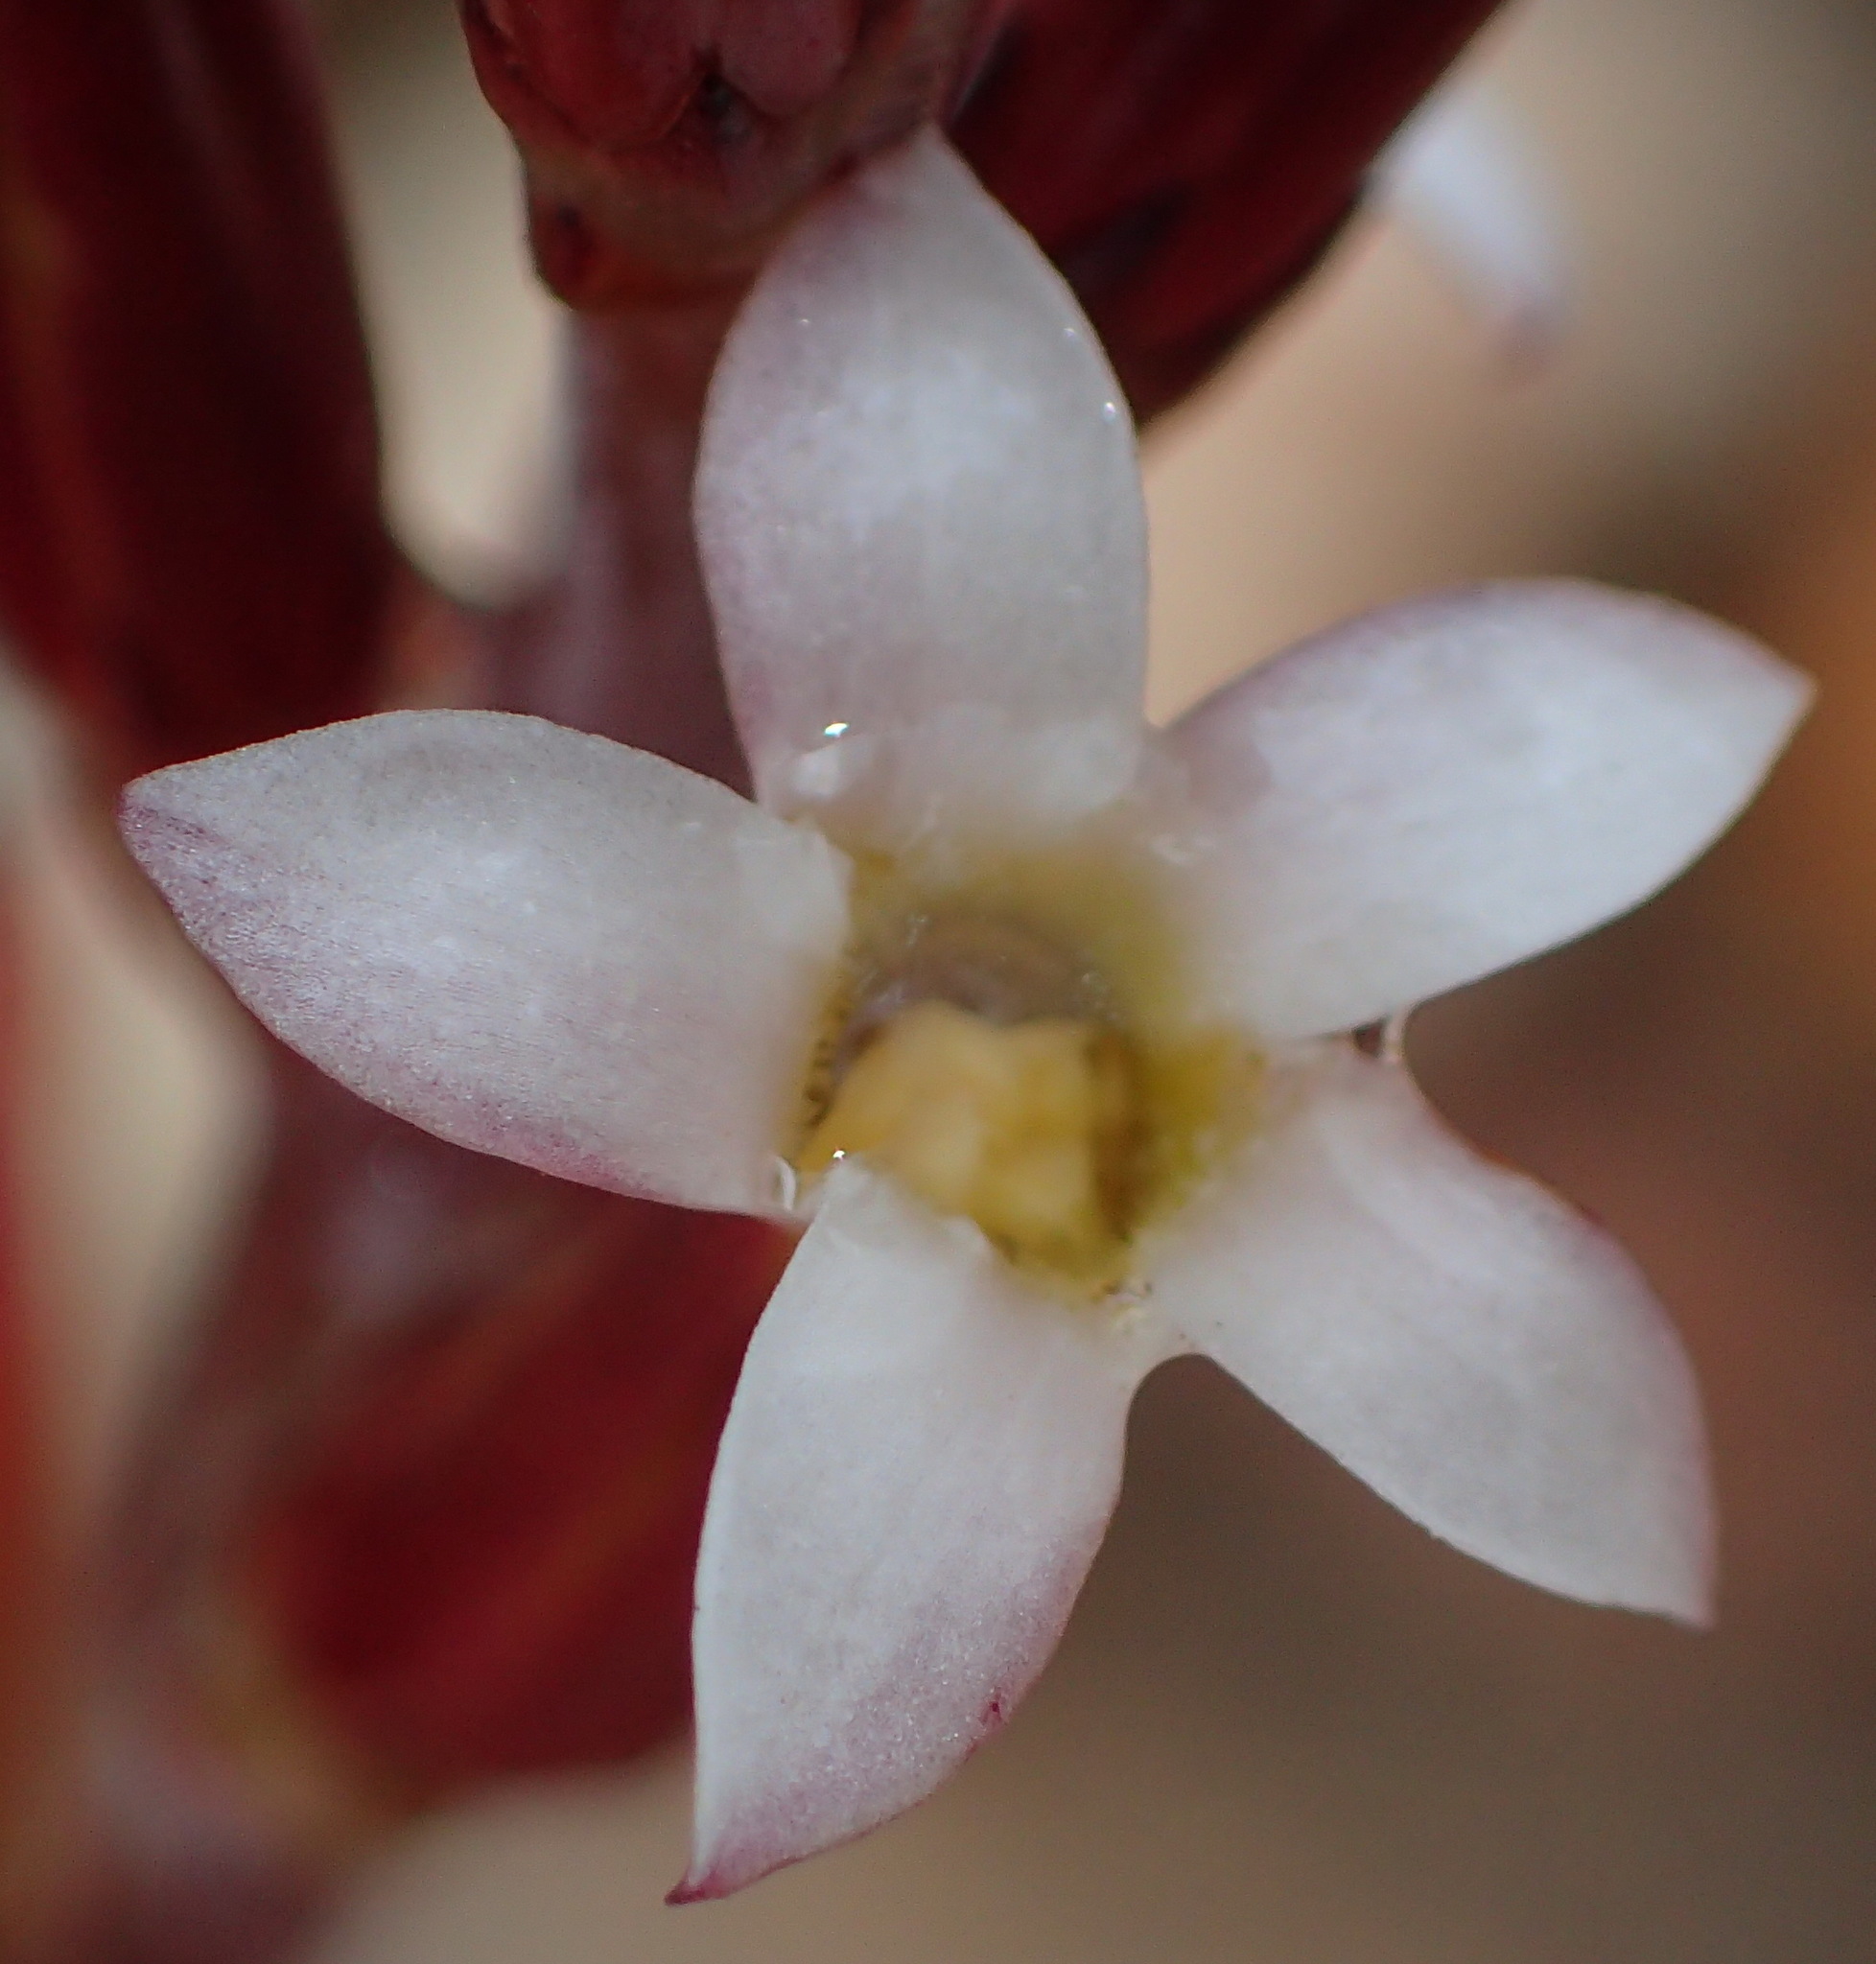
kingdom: Plantae
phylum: Tracheophyta
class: Magnoliopsida
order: Saxifragales
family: Crassulaceae
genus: Adromischus
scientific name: Adromischus inamoenus
